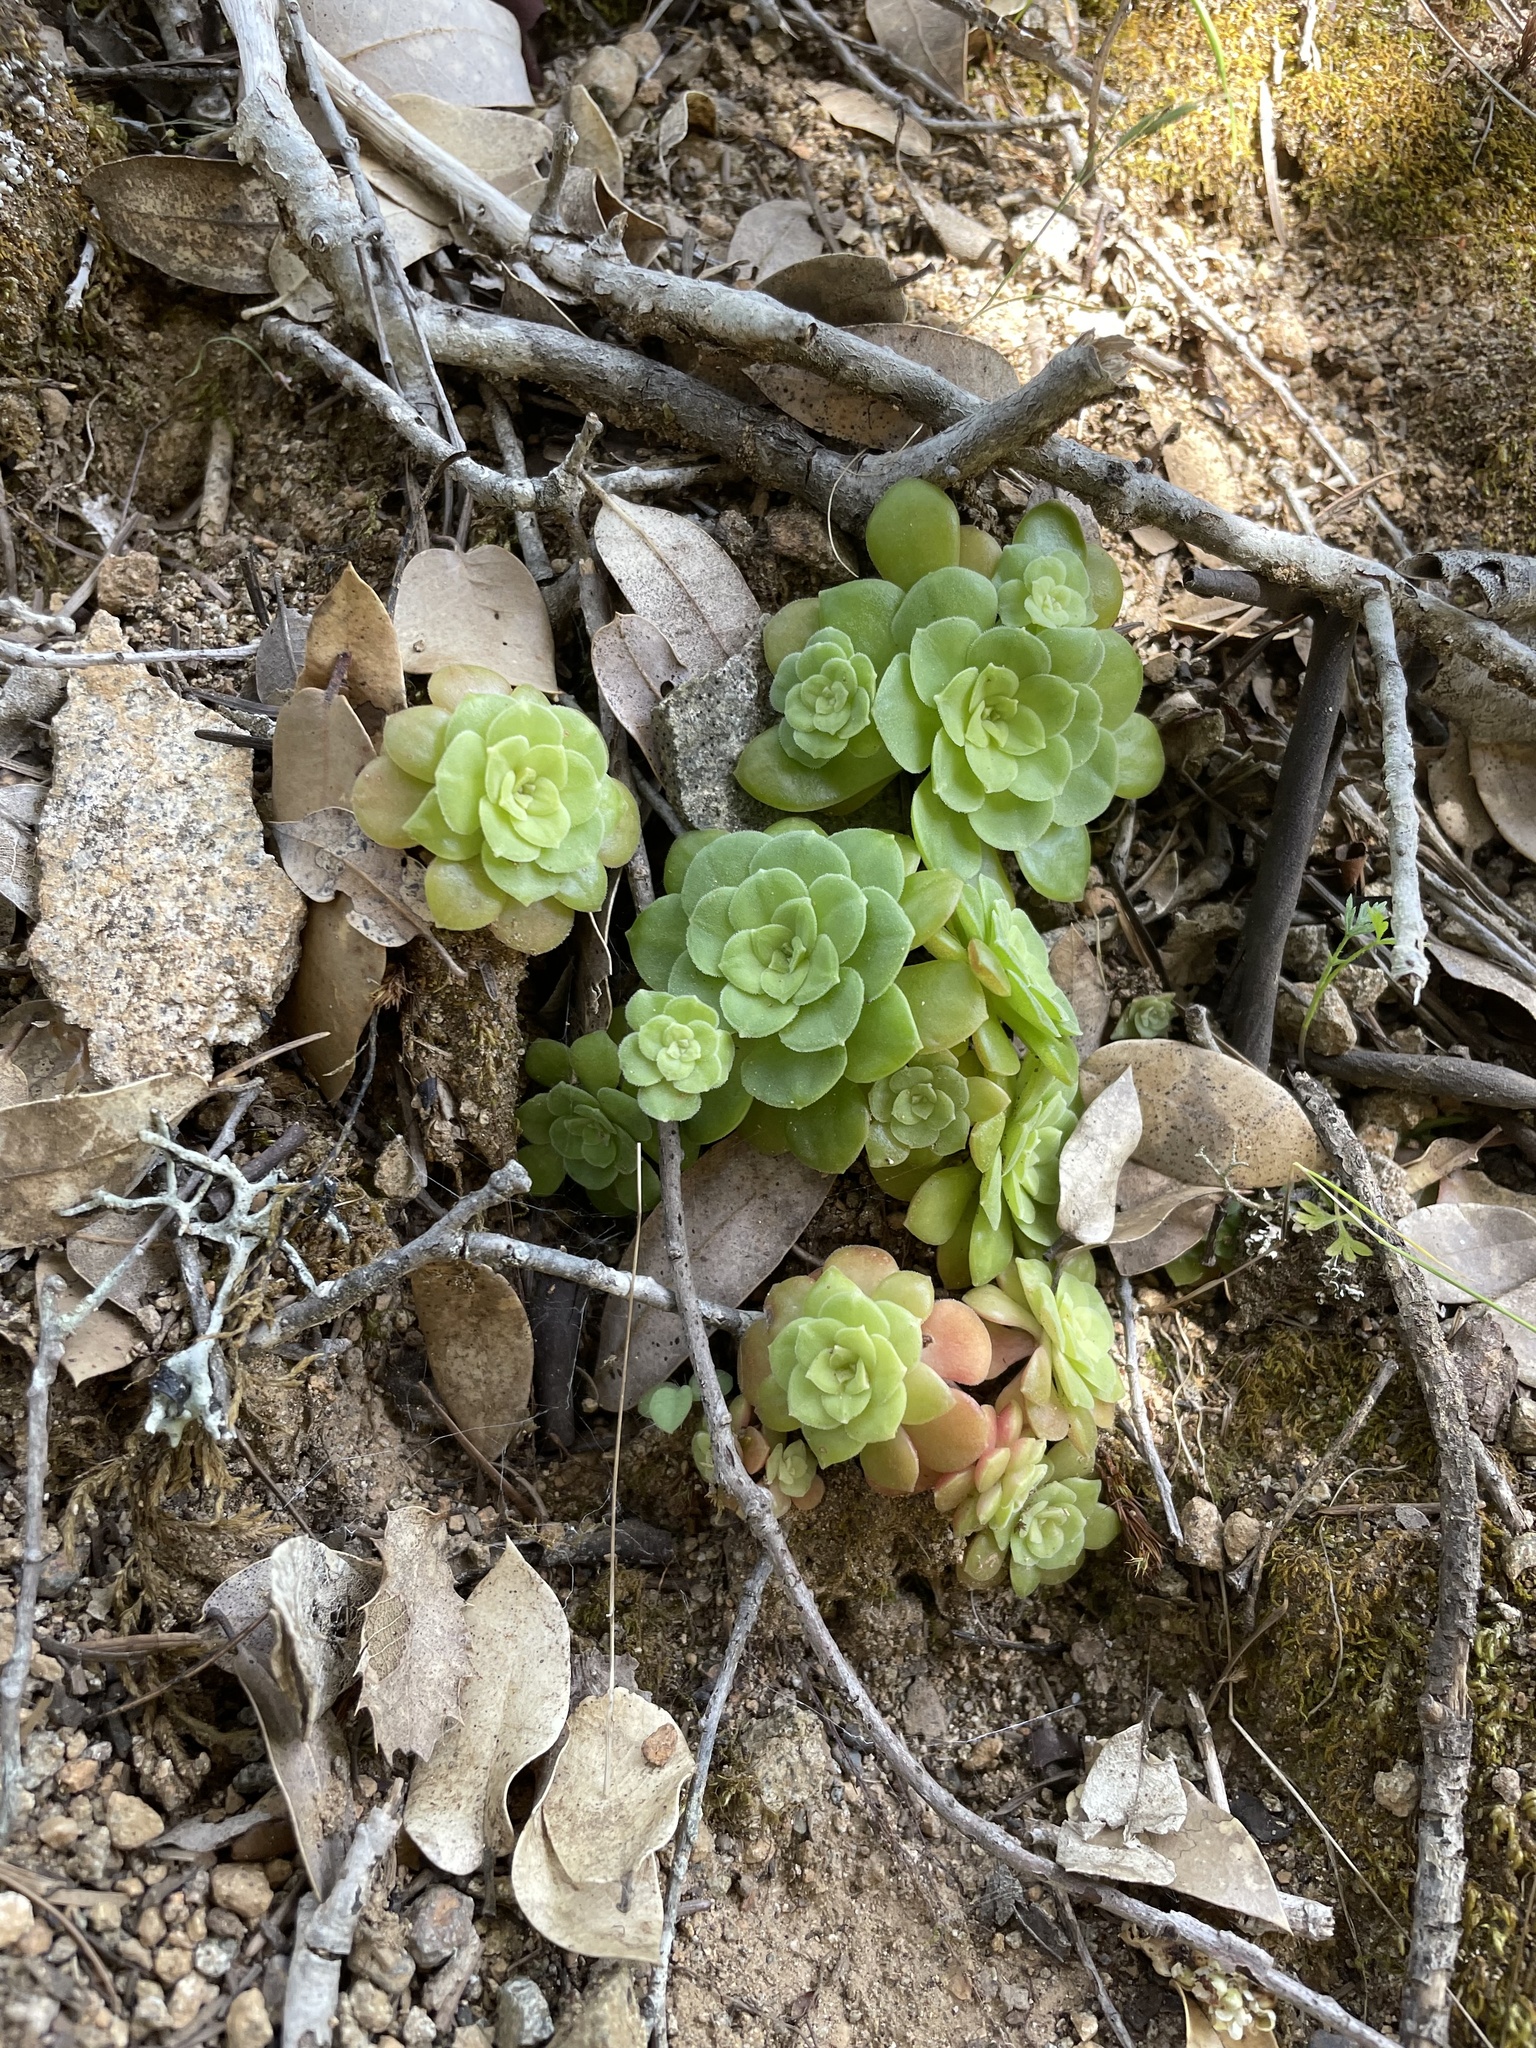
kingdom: Plantae
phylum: Tracheophyta
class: Magnoliopsida
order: Saxifragales
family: Crassulaceae
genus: Sedum
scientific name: Sedum spathulifolium
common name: Colorado stonecrop
